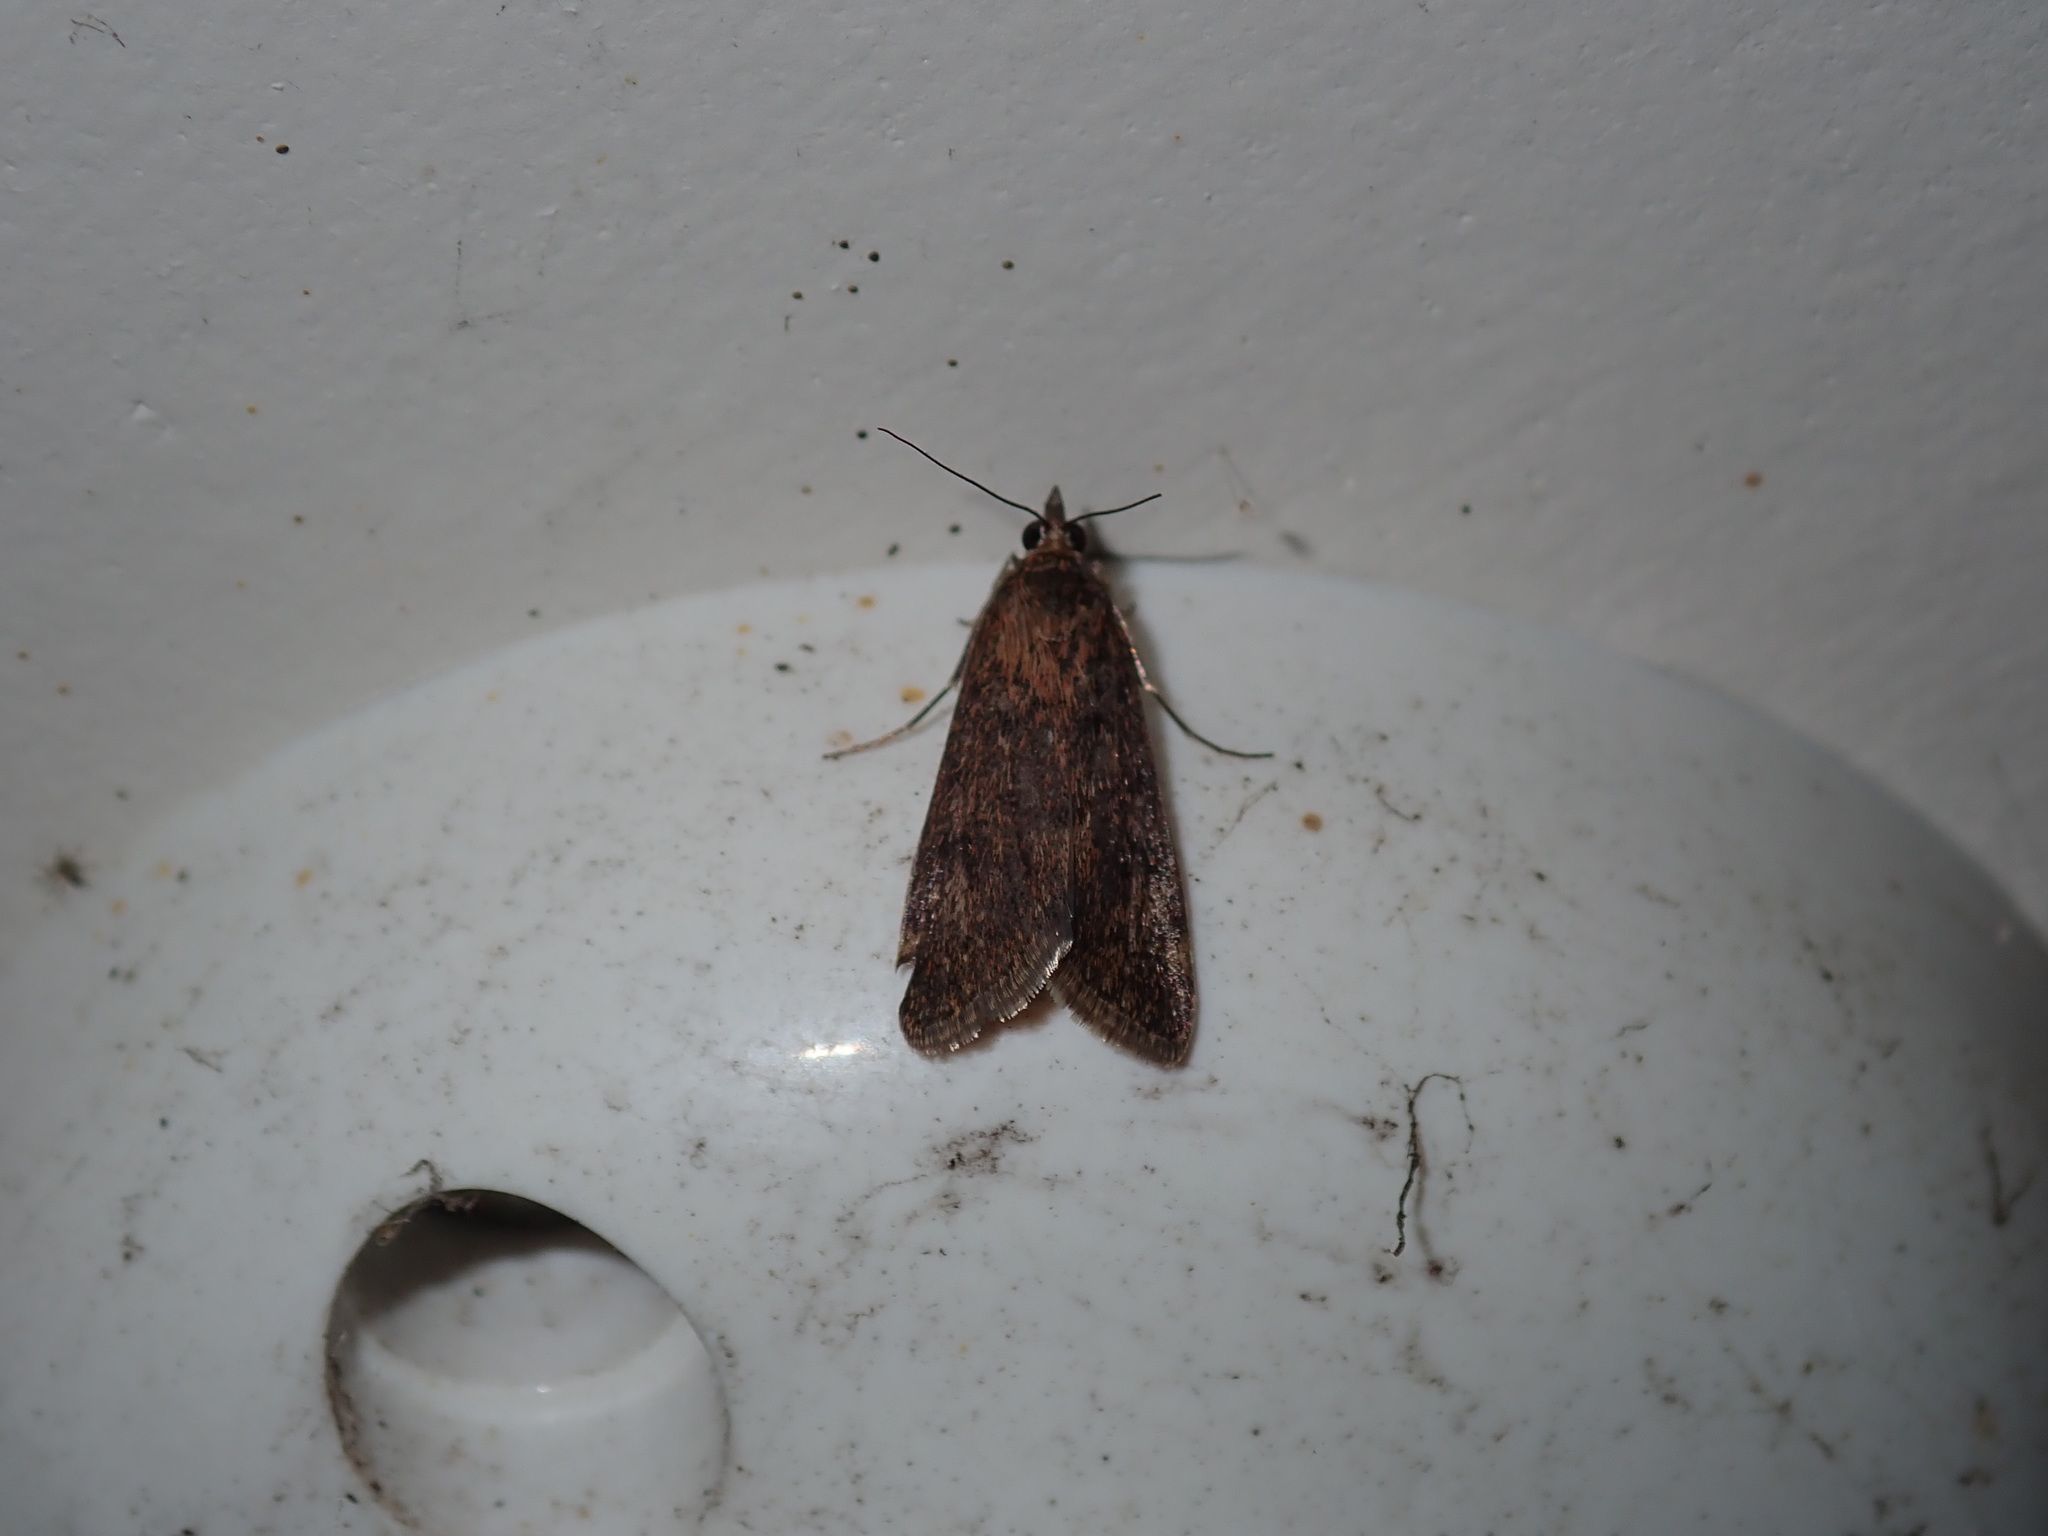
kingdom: Animalia
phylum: Arthropoda
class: Insecta
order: Lepidoptera
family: Crambidae
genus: Achyra
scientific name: Achyra affinitalis
